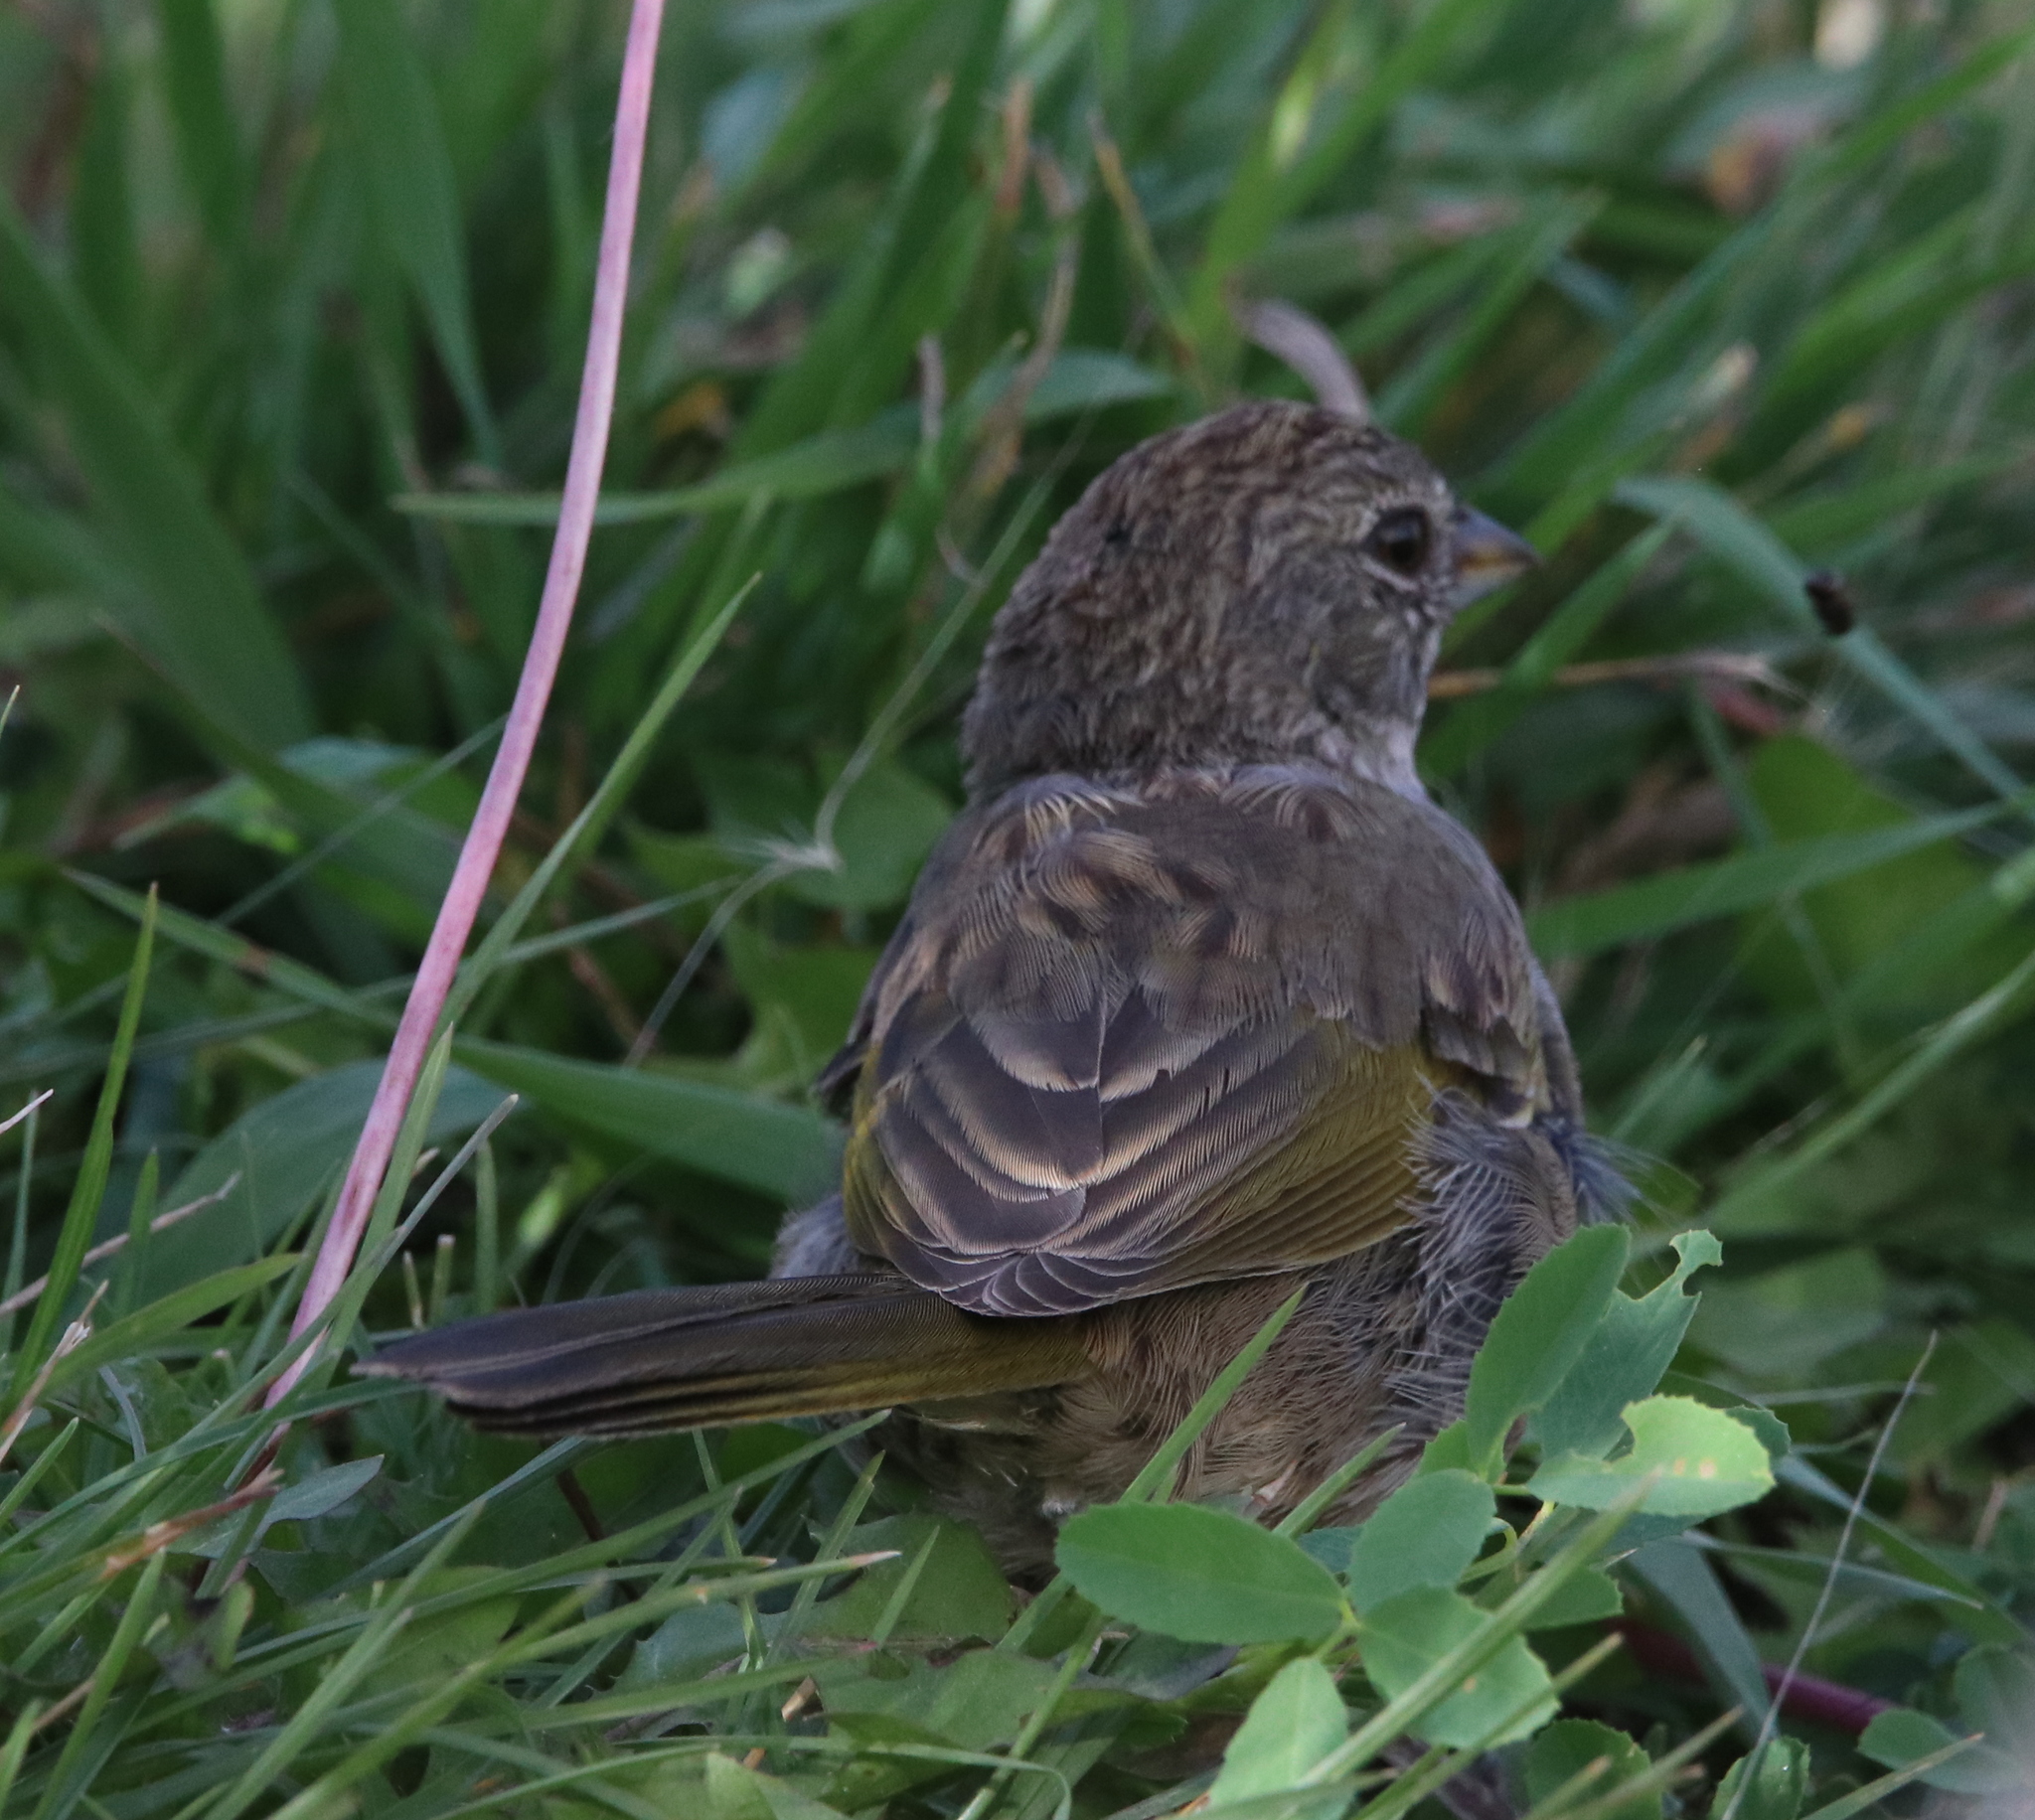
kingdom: Animalia
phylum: Chordata
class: Aves
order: Passeriformes
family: Passerellidae
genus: Pipilo
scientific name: Pipilo chlorurus
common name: Green-tailed towhee
